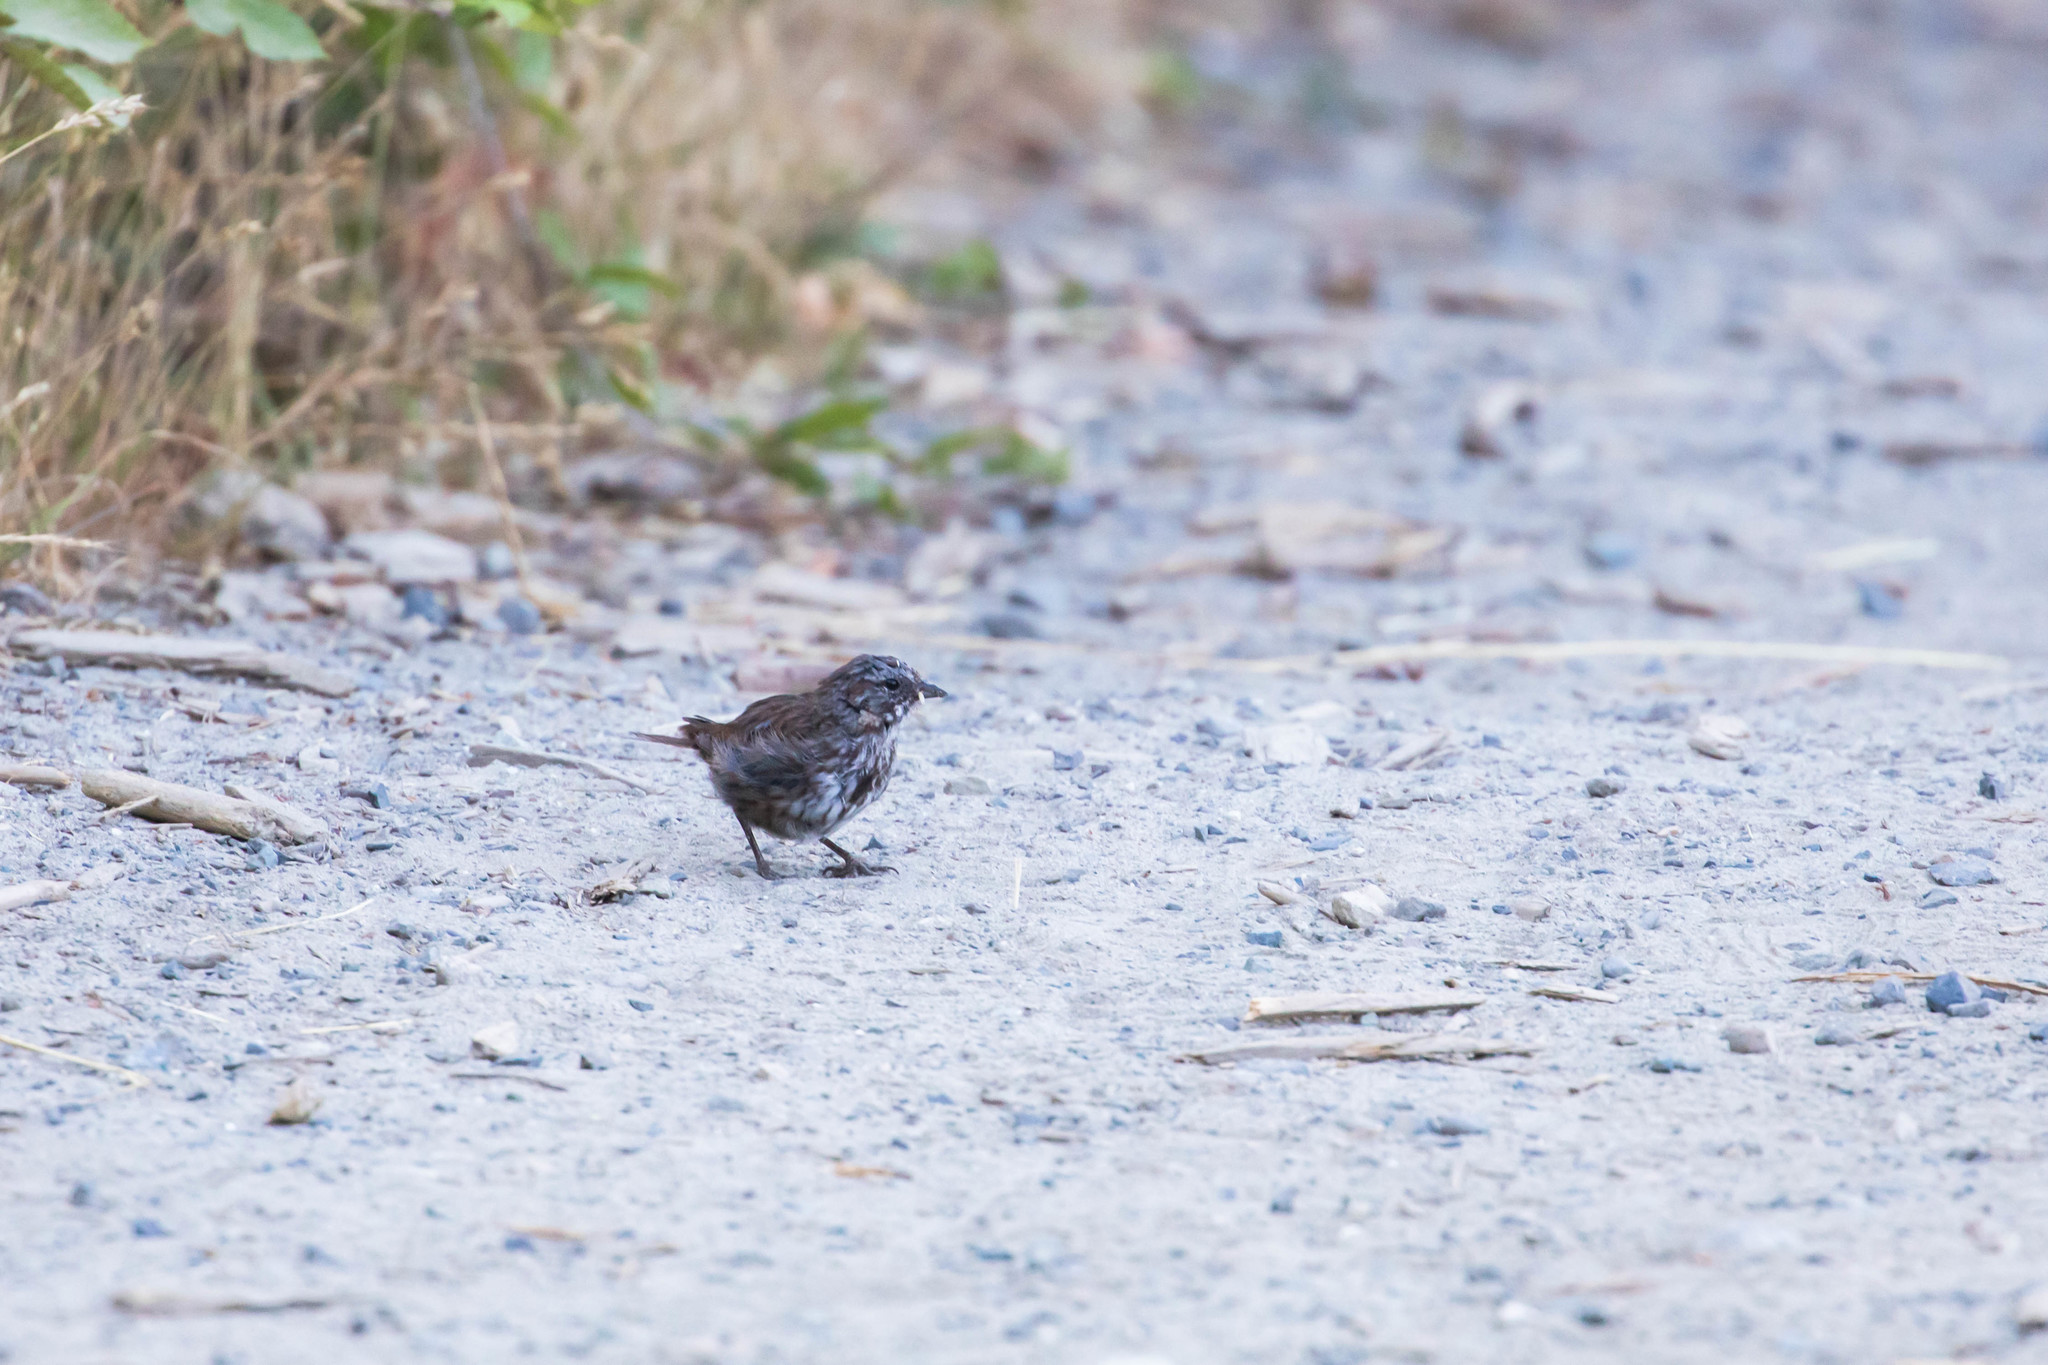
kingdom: Animalia
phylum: Chordata
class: Aves
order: Passeriformes
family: Passerellidae
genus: Melospiza
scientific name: Melospiza melodia
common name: Song sparrow
